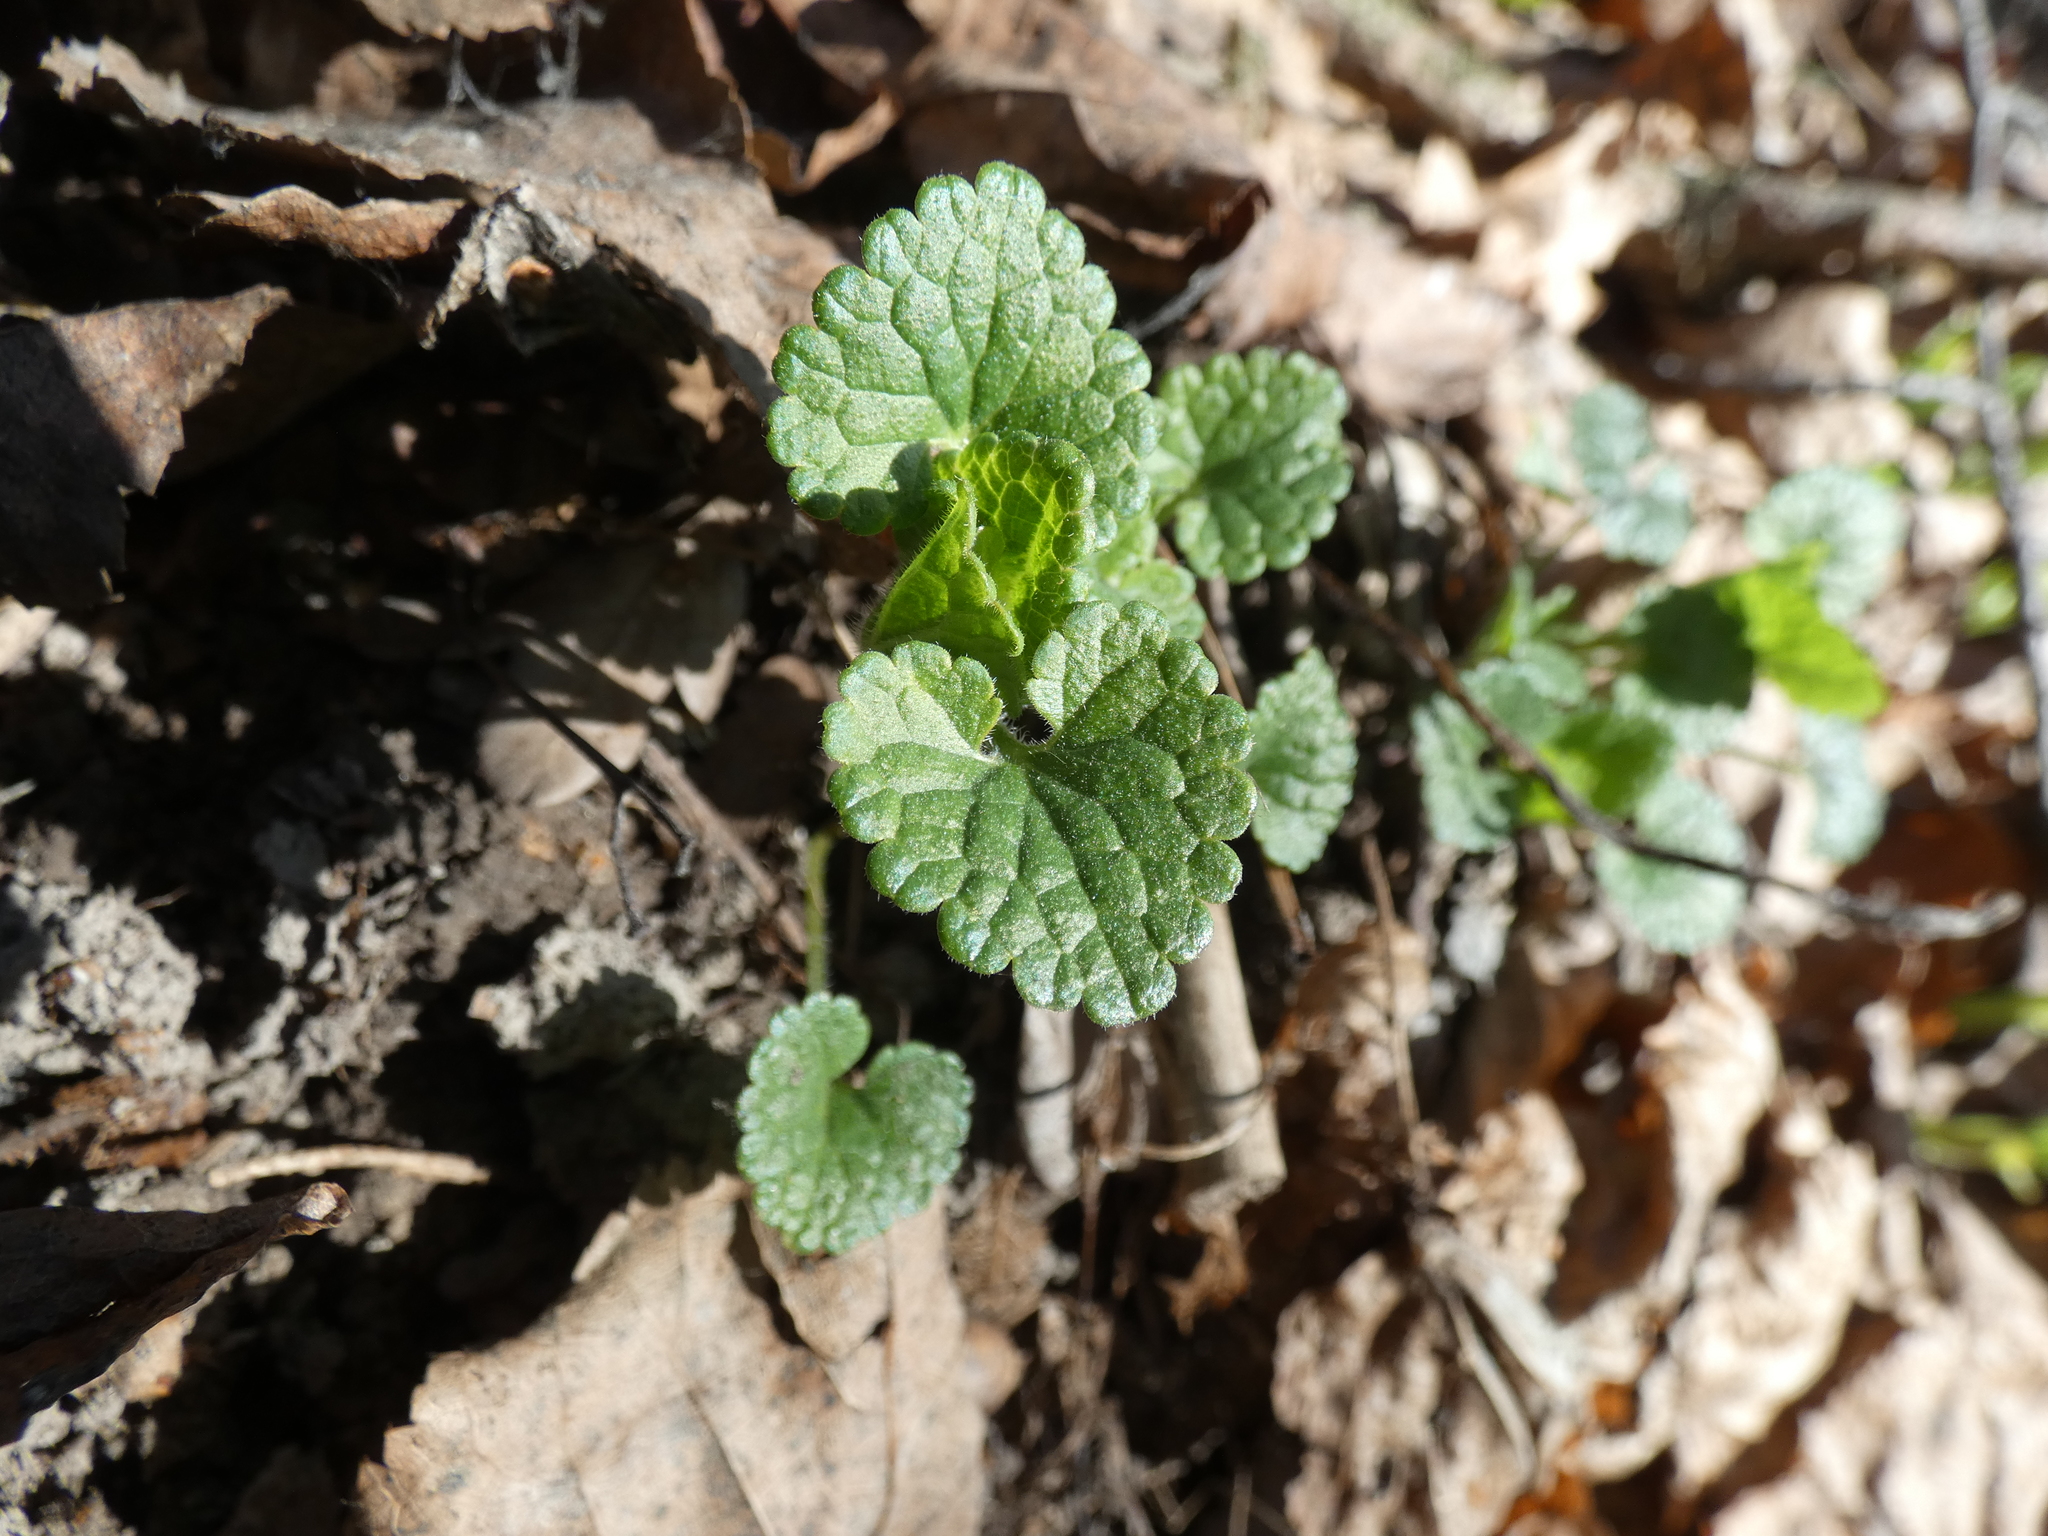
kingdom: Plantae
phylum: Tracheophyta
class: Magnoliopsida
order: Lamiales
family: Lamiaceae
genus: Glechoma
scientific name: Glechoma hederacea
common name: Ground ivy
